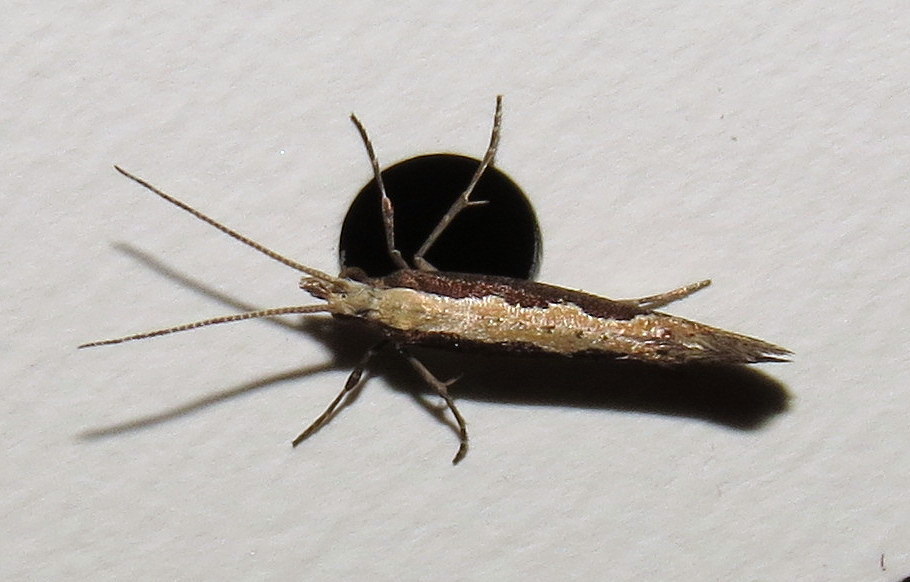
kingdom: Animalia
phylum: Arthropoda
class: Insecta
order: Lepidoptera
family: Plutellidae
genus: Plutella
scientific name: Plutella xylostella
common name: Diamond-back moth
